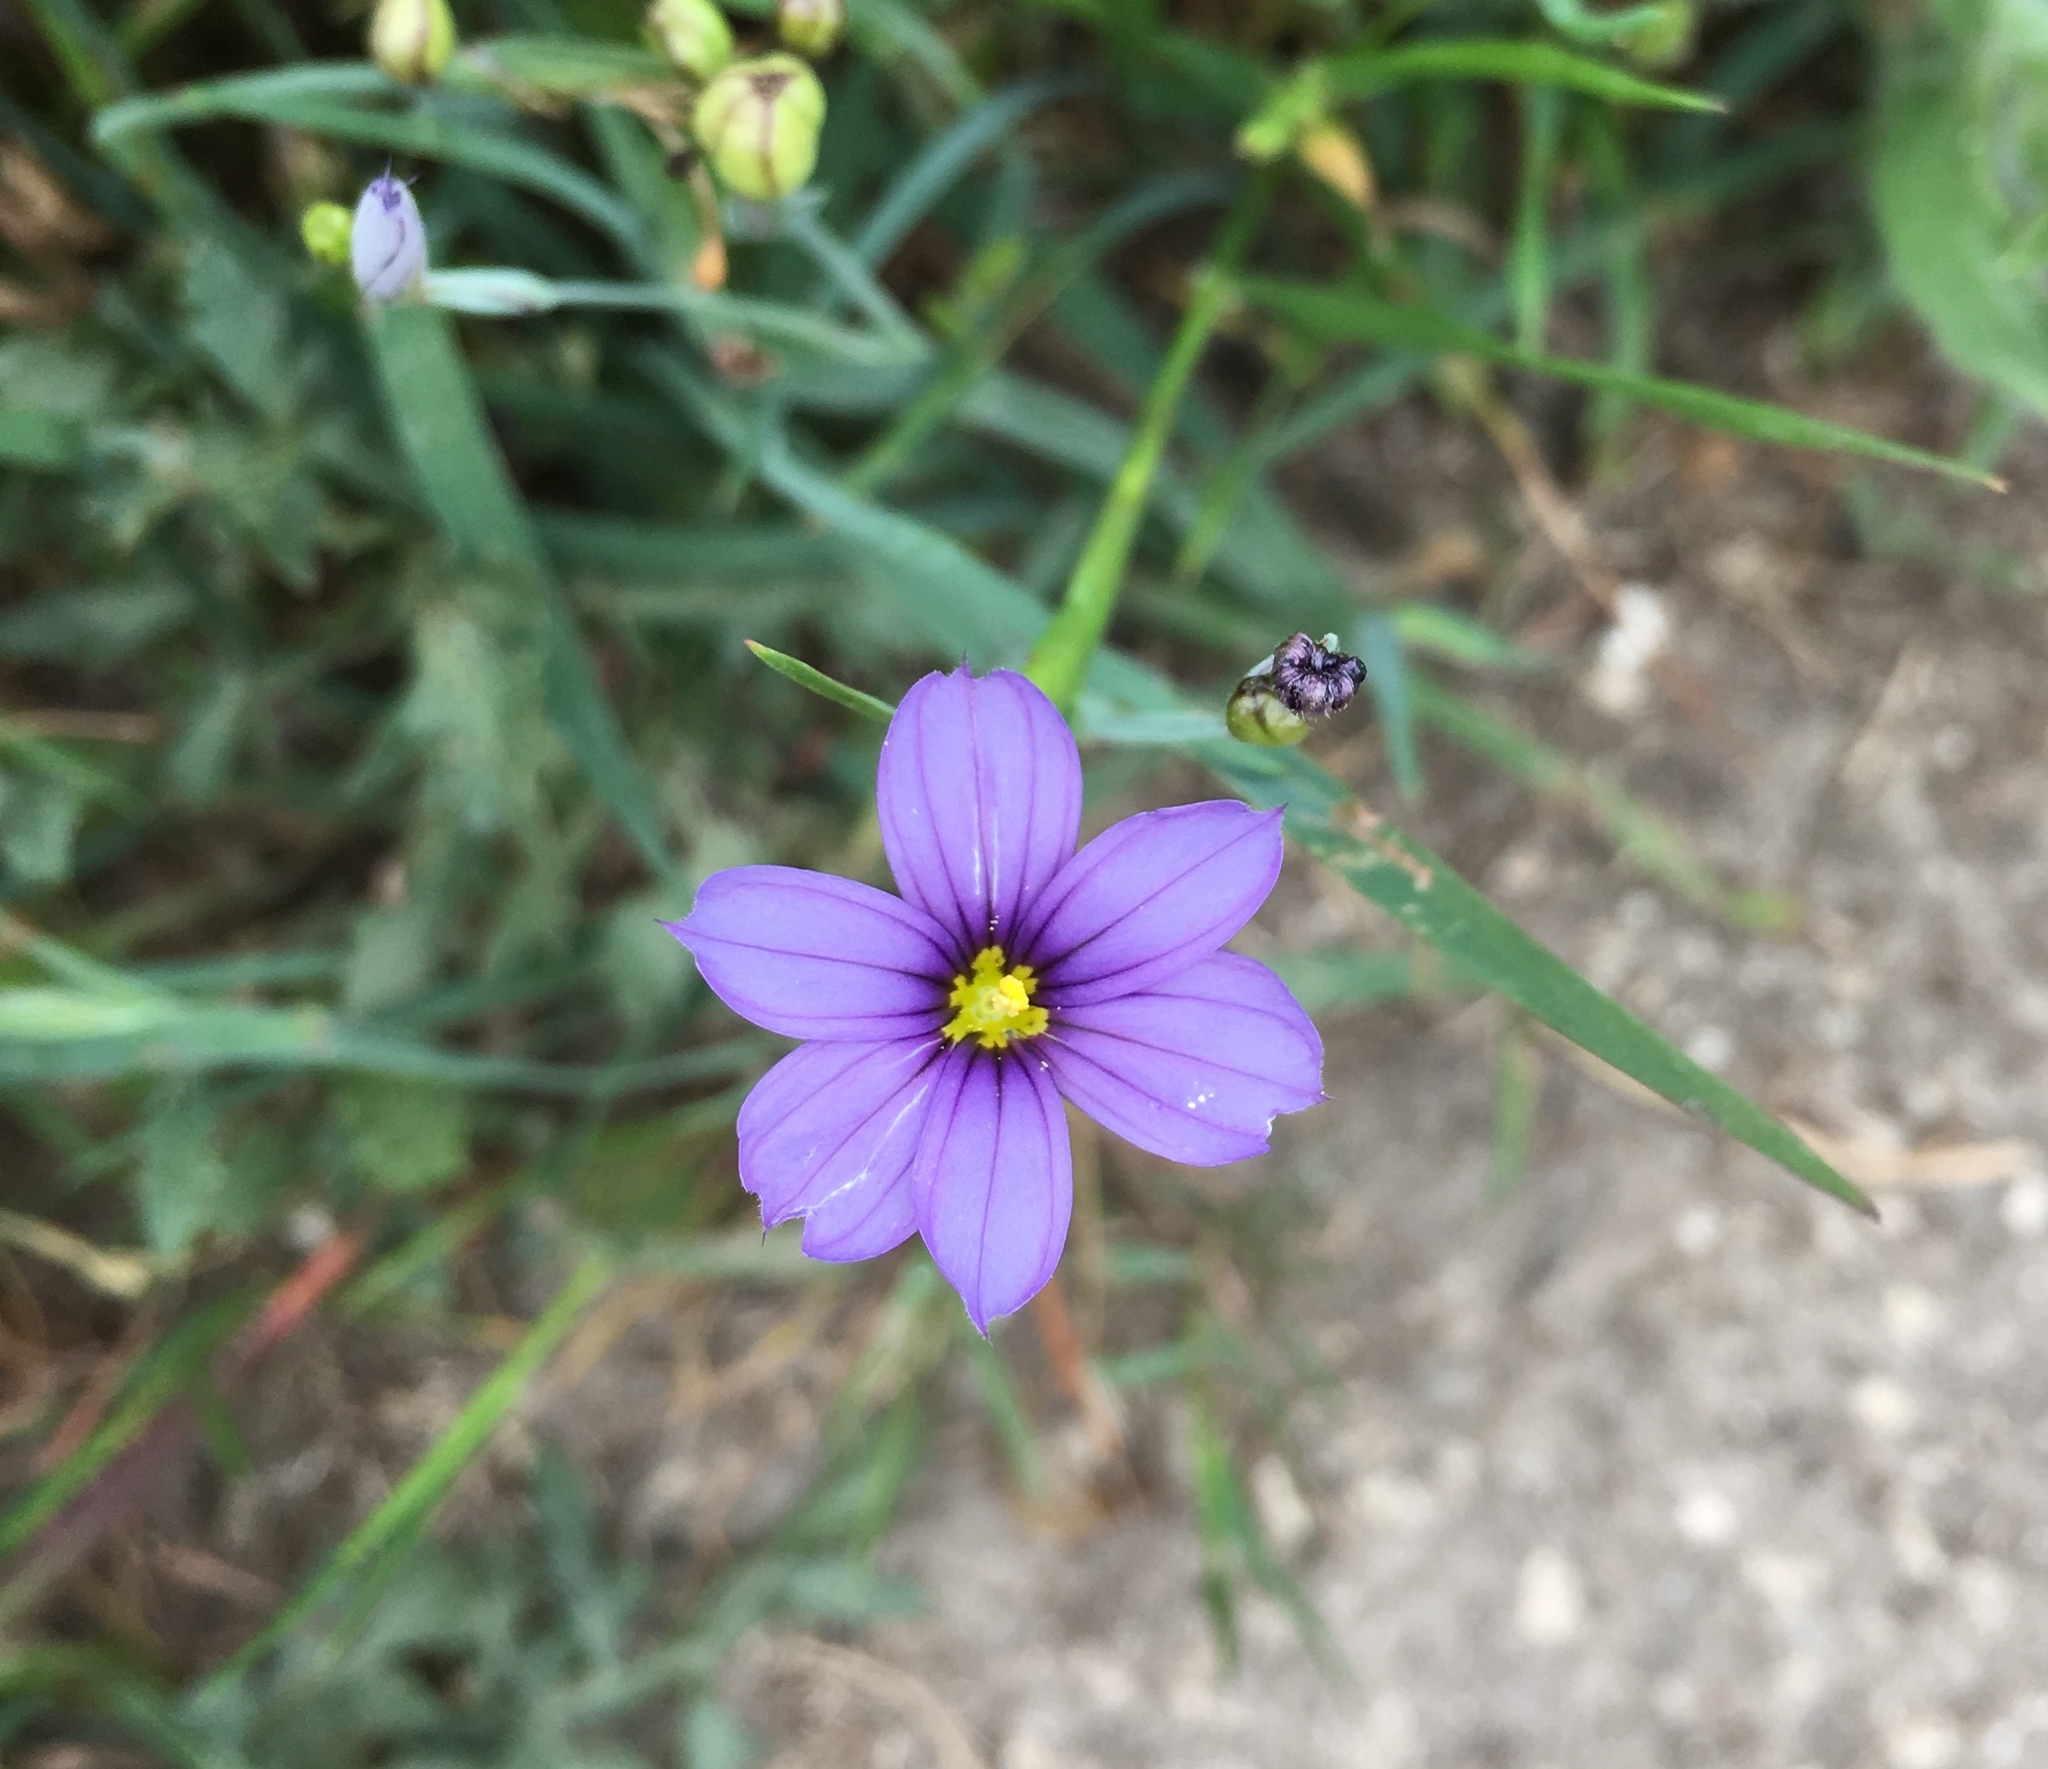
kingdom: Plantae
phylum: Tracheophyta
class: Liliopsida
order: Asparagales
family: Iridaceae
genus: Sisyrinchium
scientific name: Sisyrinchium bellum
